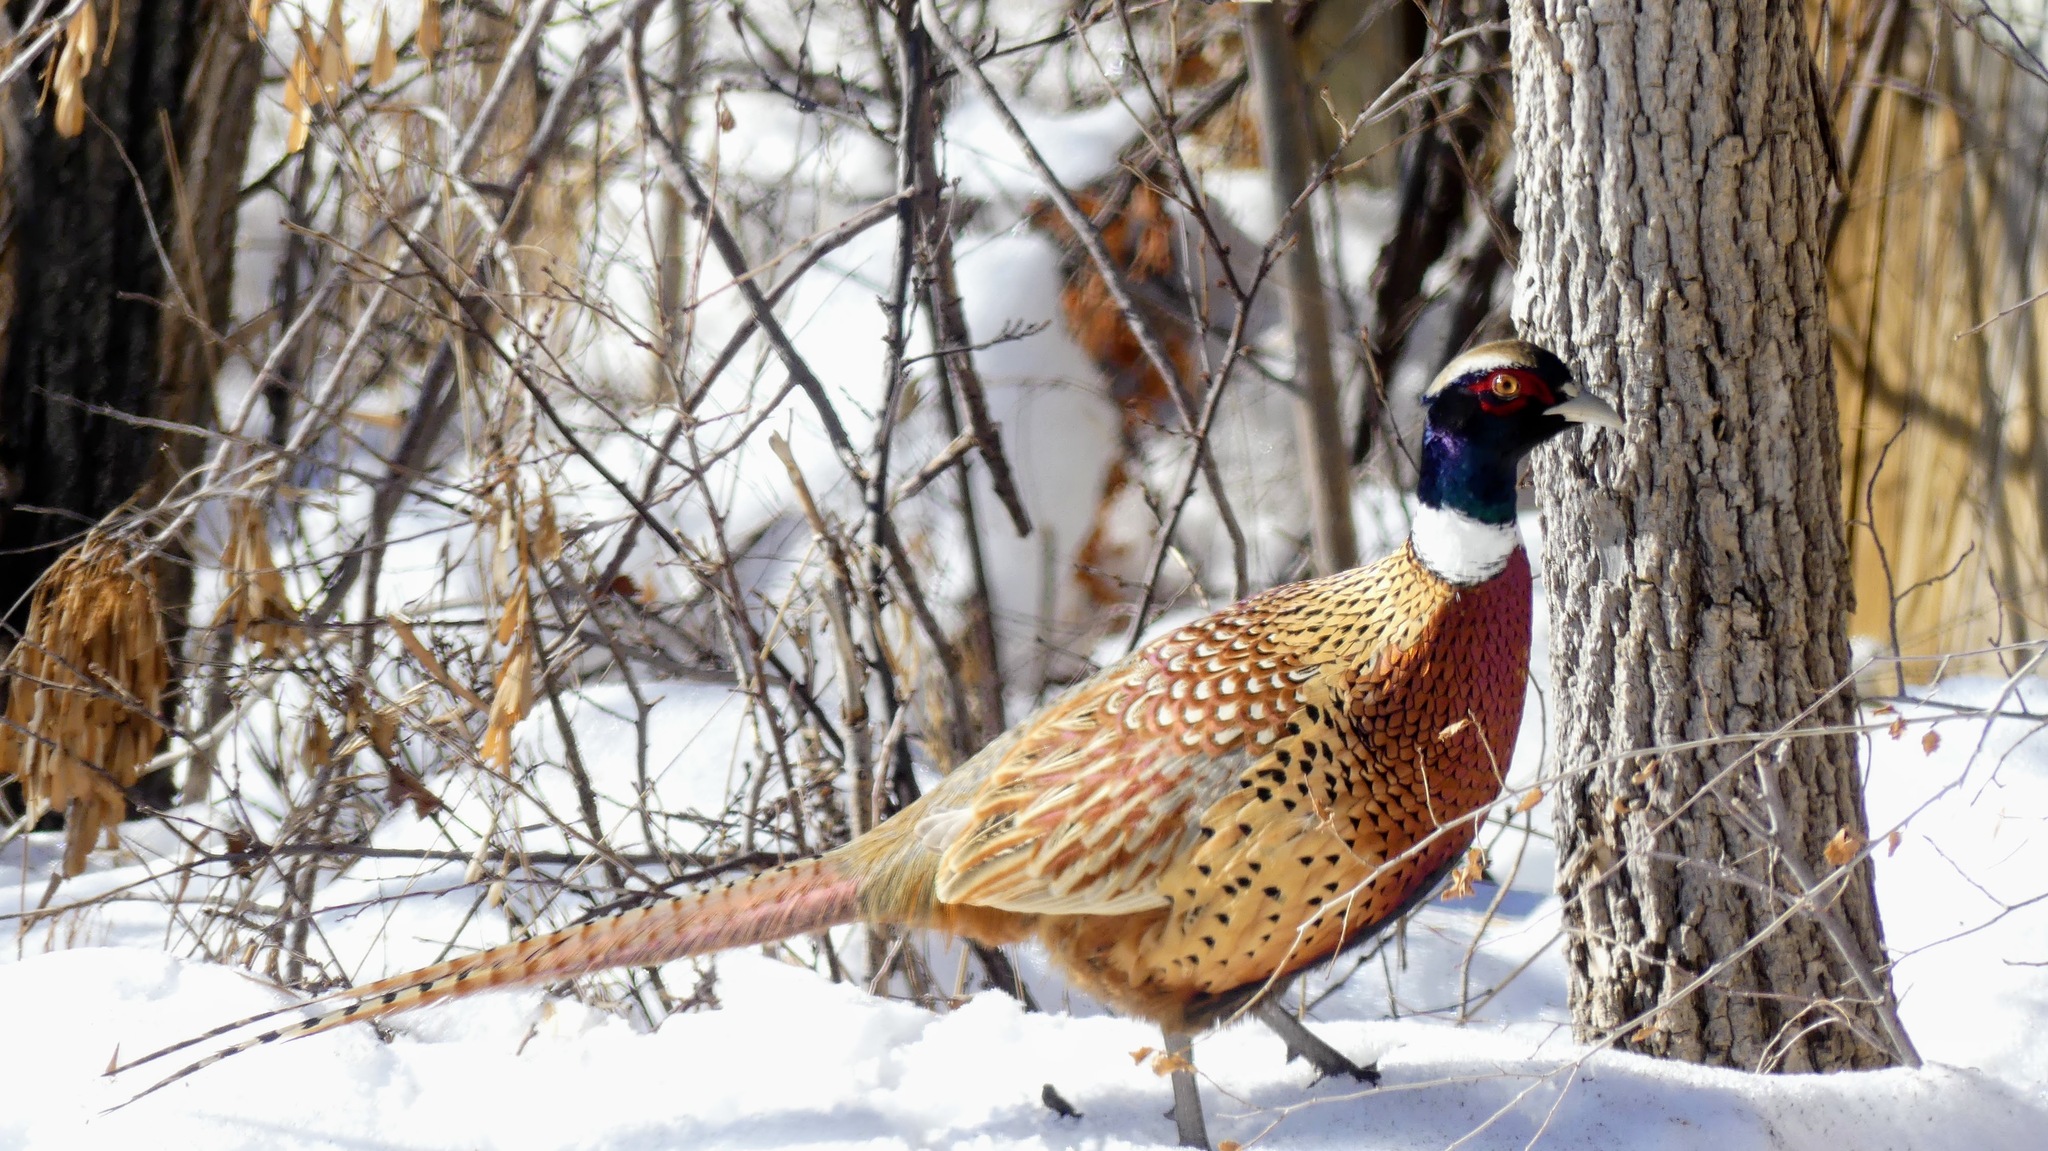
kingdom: Animalia
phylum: Chordata
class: Aves
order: Galliformes
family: Phasianidae
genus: Phasianus
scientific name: Phasianus colchicus
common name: Common pheasant
